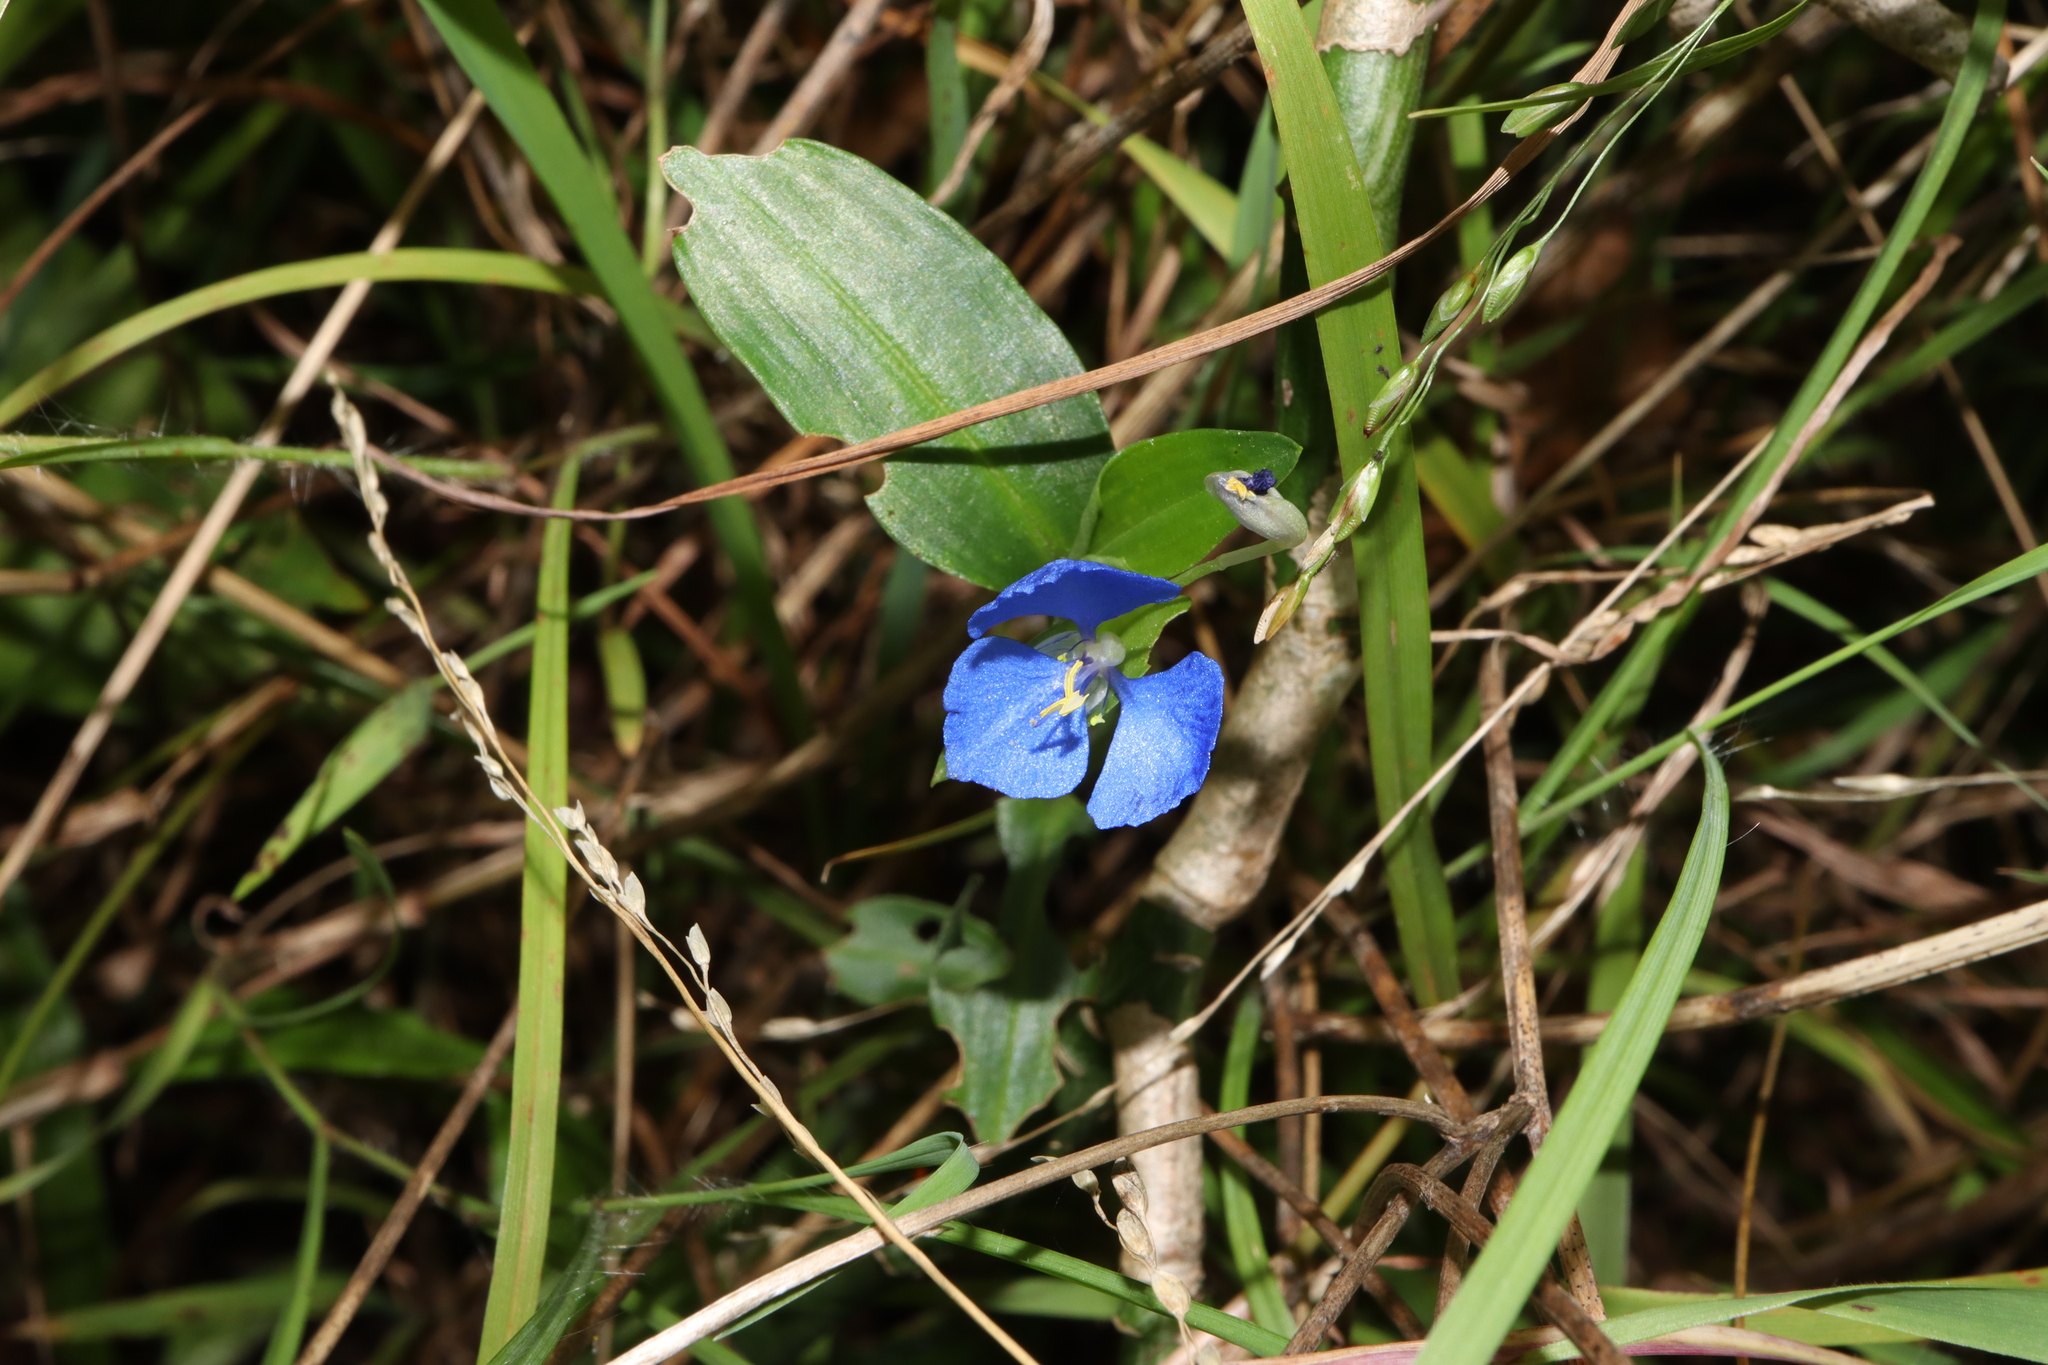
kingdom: Plantae
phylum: Tracheophyta
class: Liliopsida
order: Commelinales
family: Commelinaceae
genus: Commelina
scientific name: Commelina cyanea
